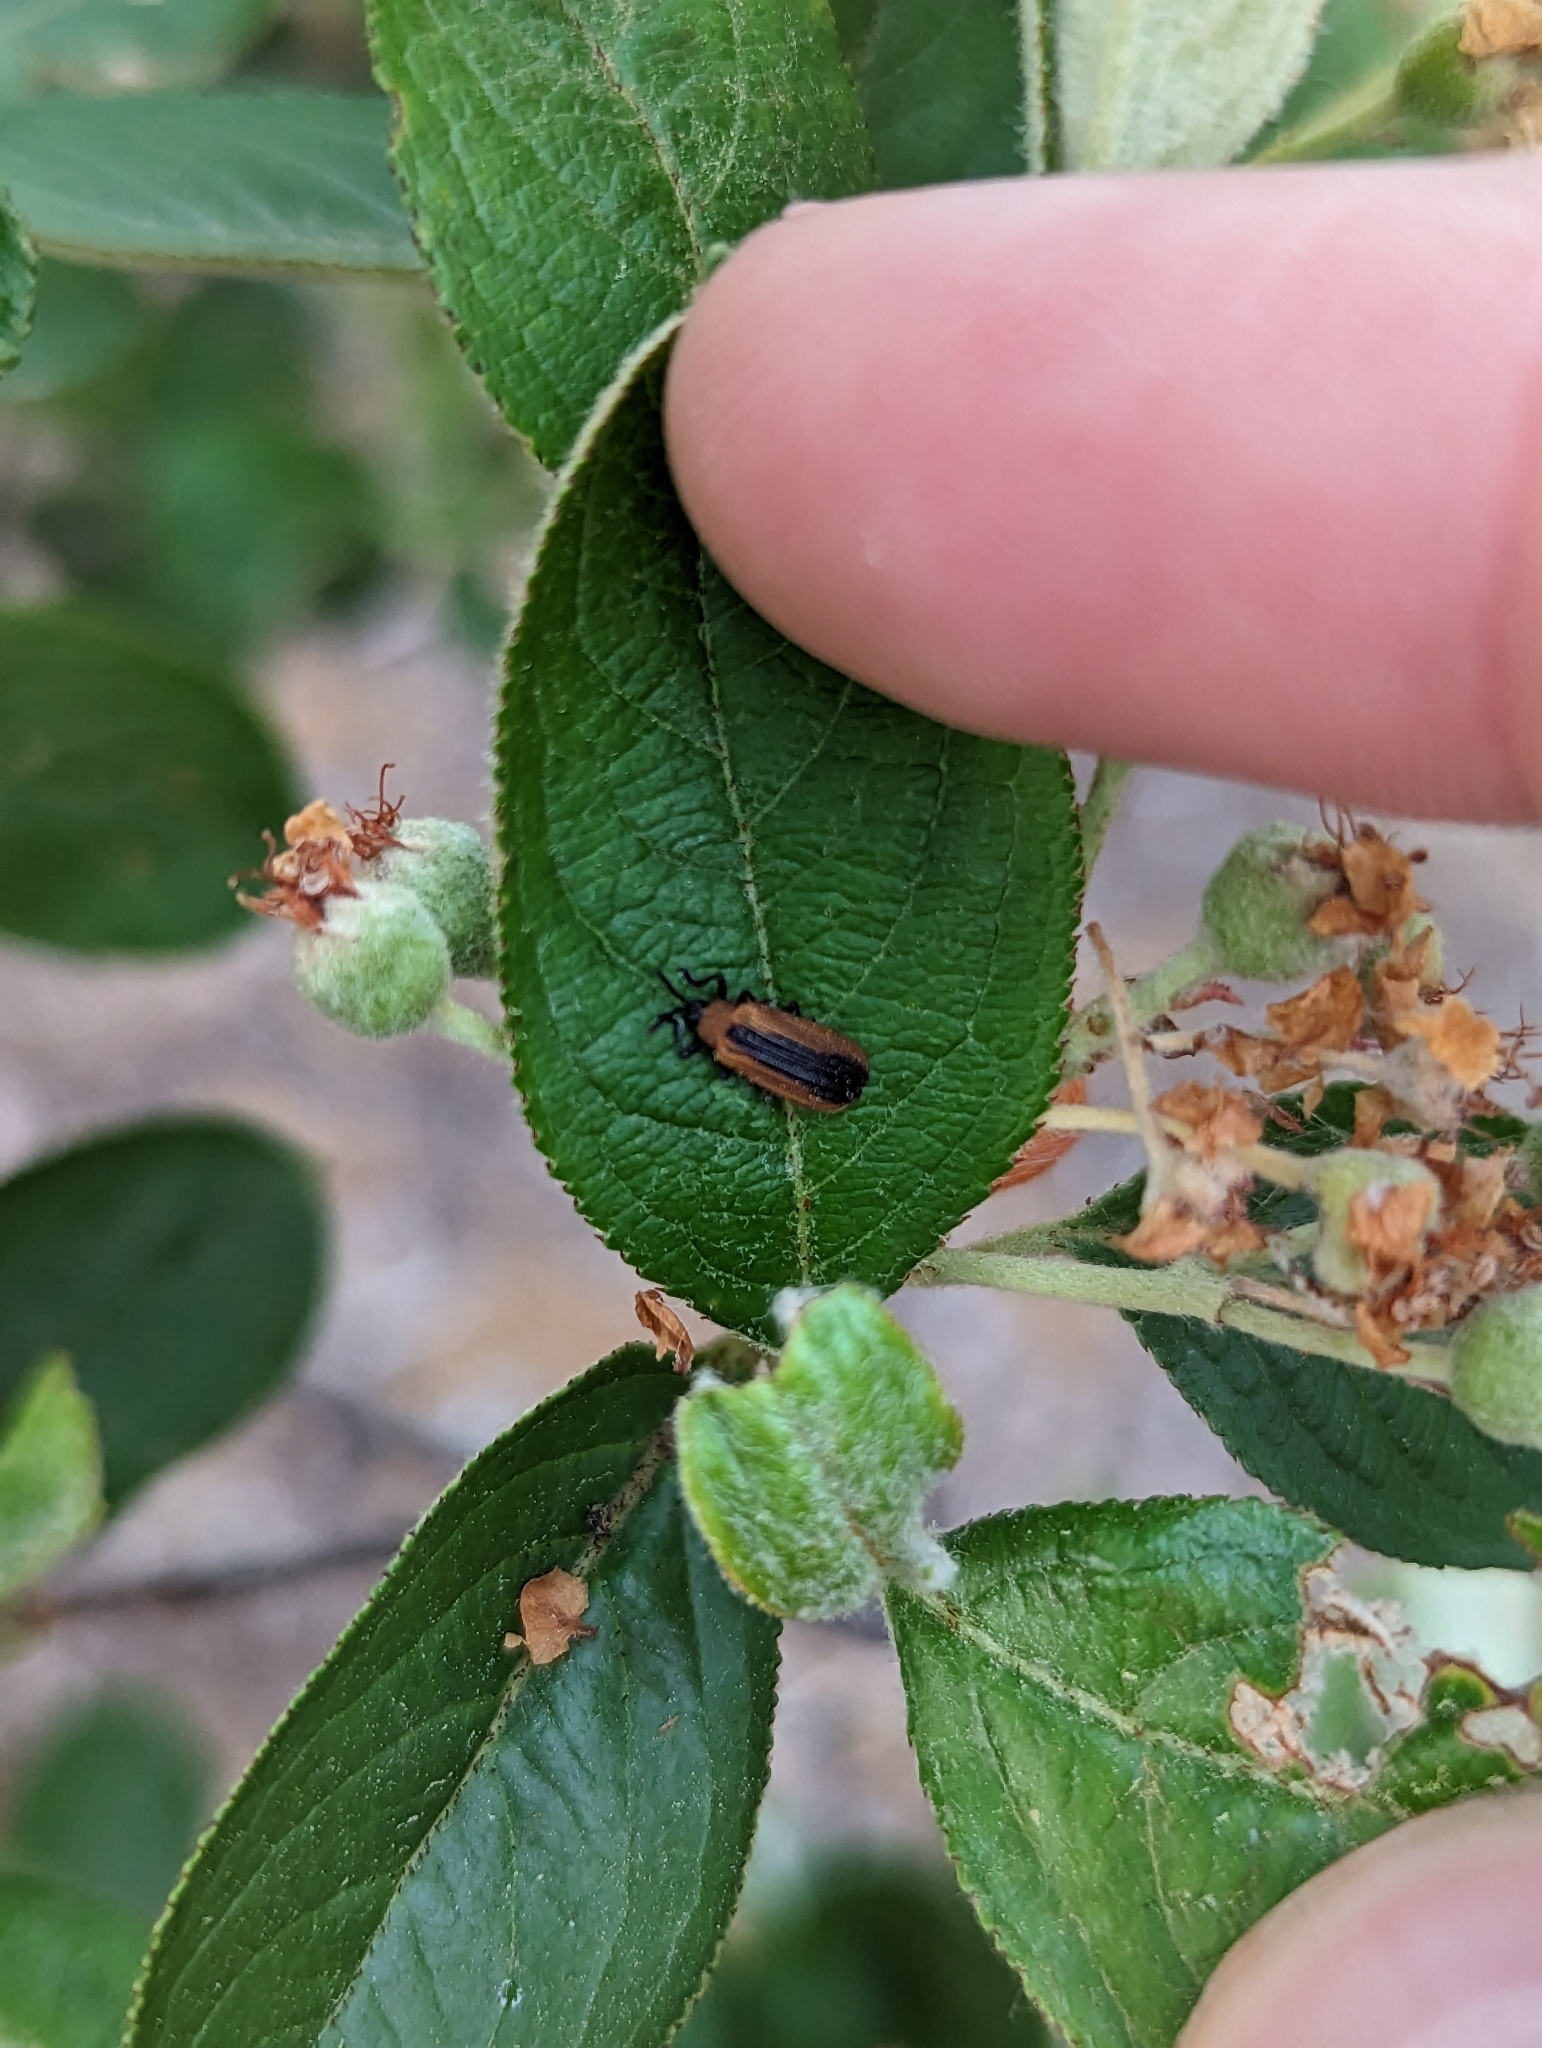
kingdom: Animalia
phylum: Arthropoda
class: Insecta
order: Coleoptera
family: Chrysomelidae
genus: Odontota
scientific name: Odontota dorsalis
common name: Locust leaf-miner beetle
